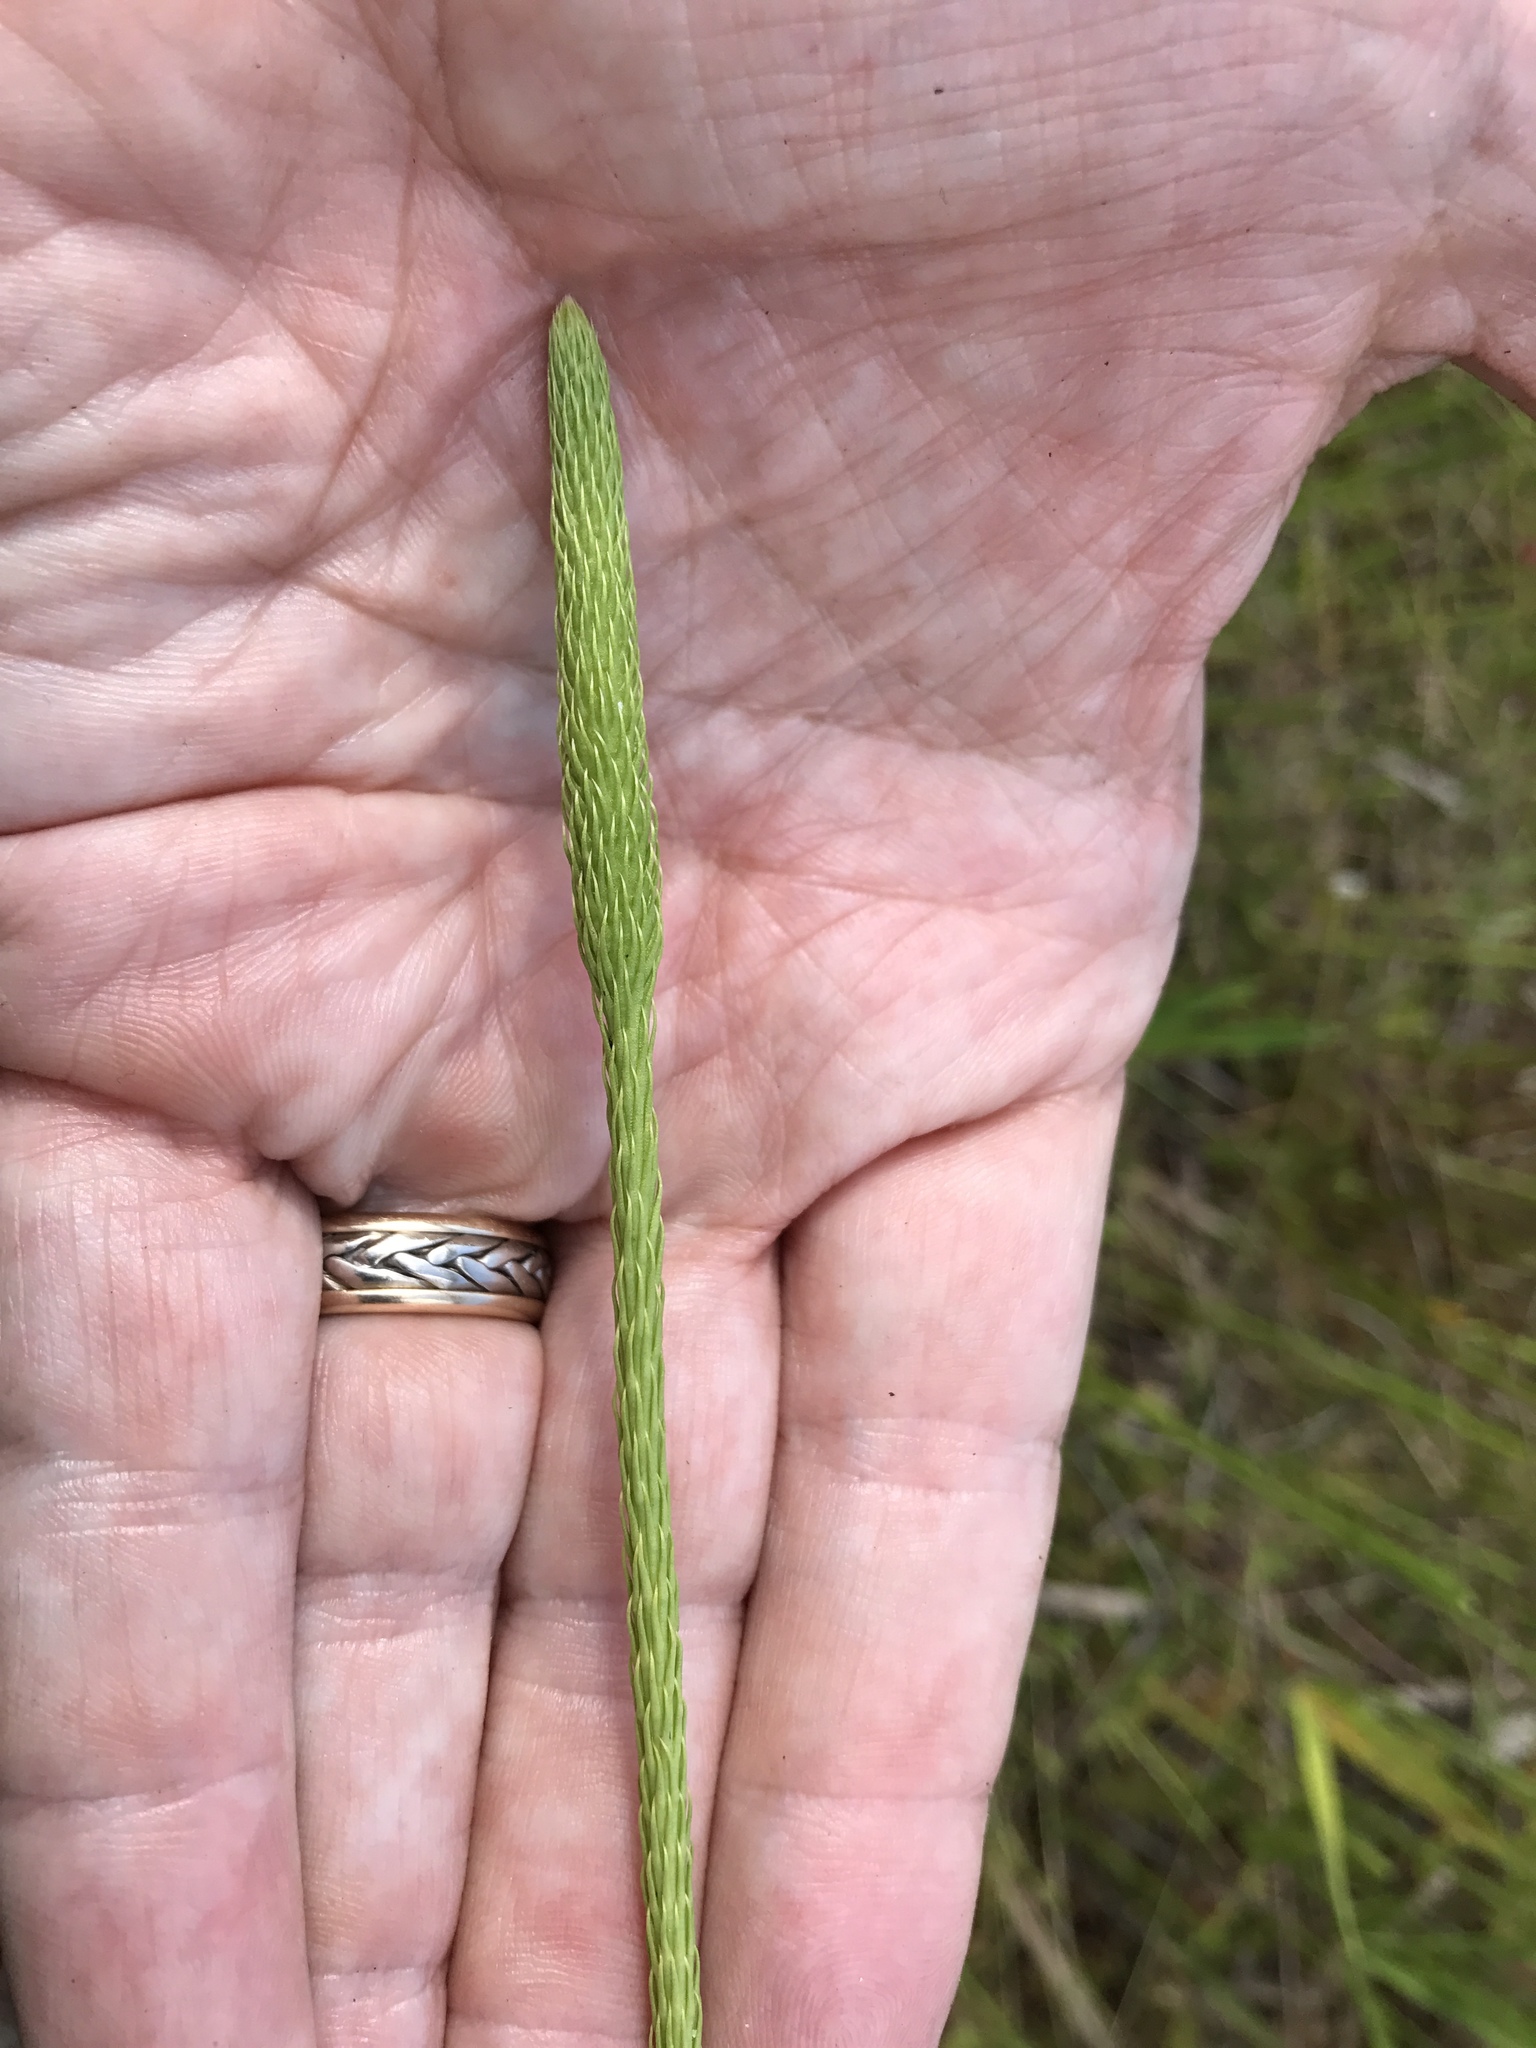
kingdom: Plantae
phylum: Tracheophyta
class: Lycopodiopsida
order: Lycopodiales
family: Lycopodiaceae
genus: Lycopodiella
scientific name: Lycopodiella appressa
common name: Appressed bog clubmoss
